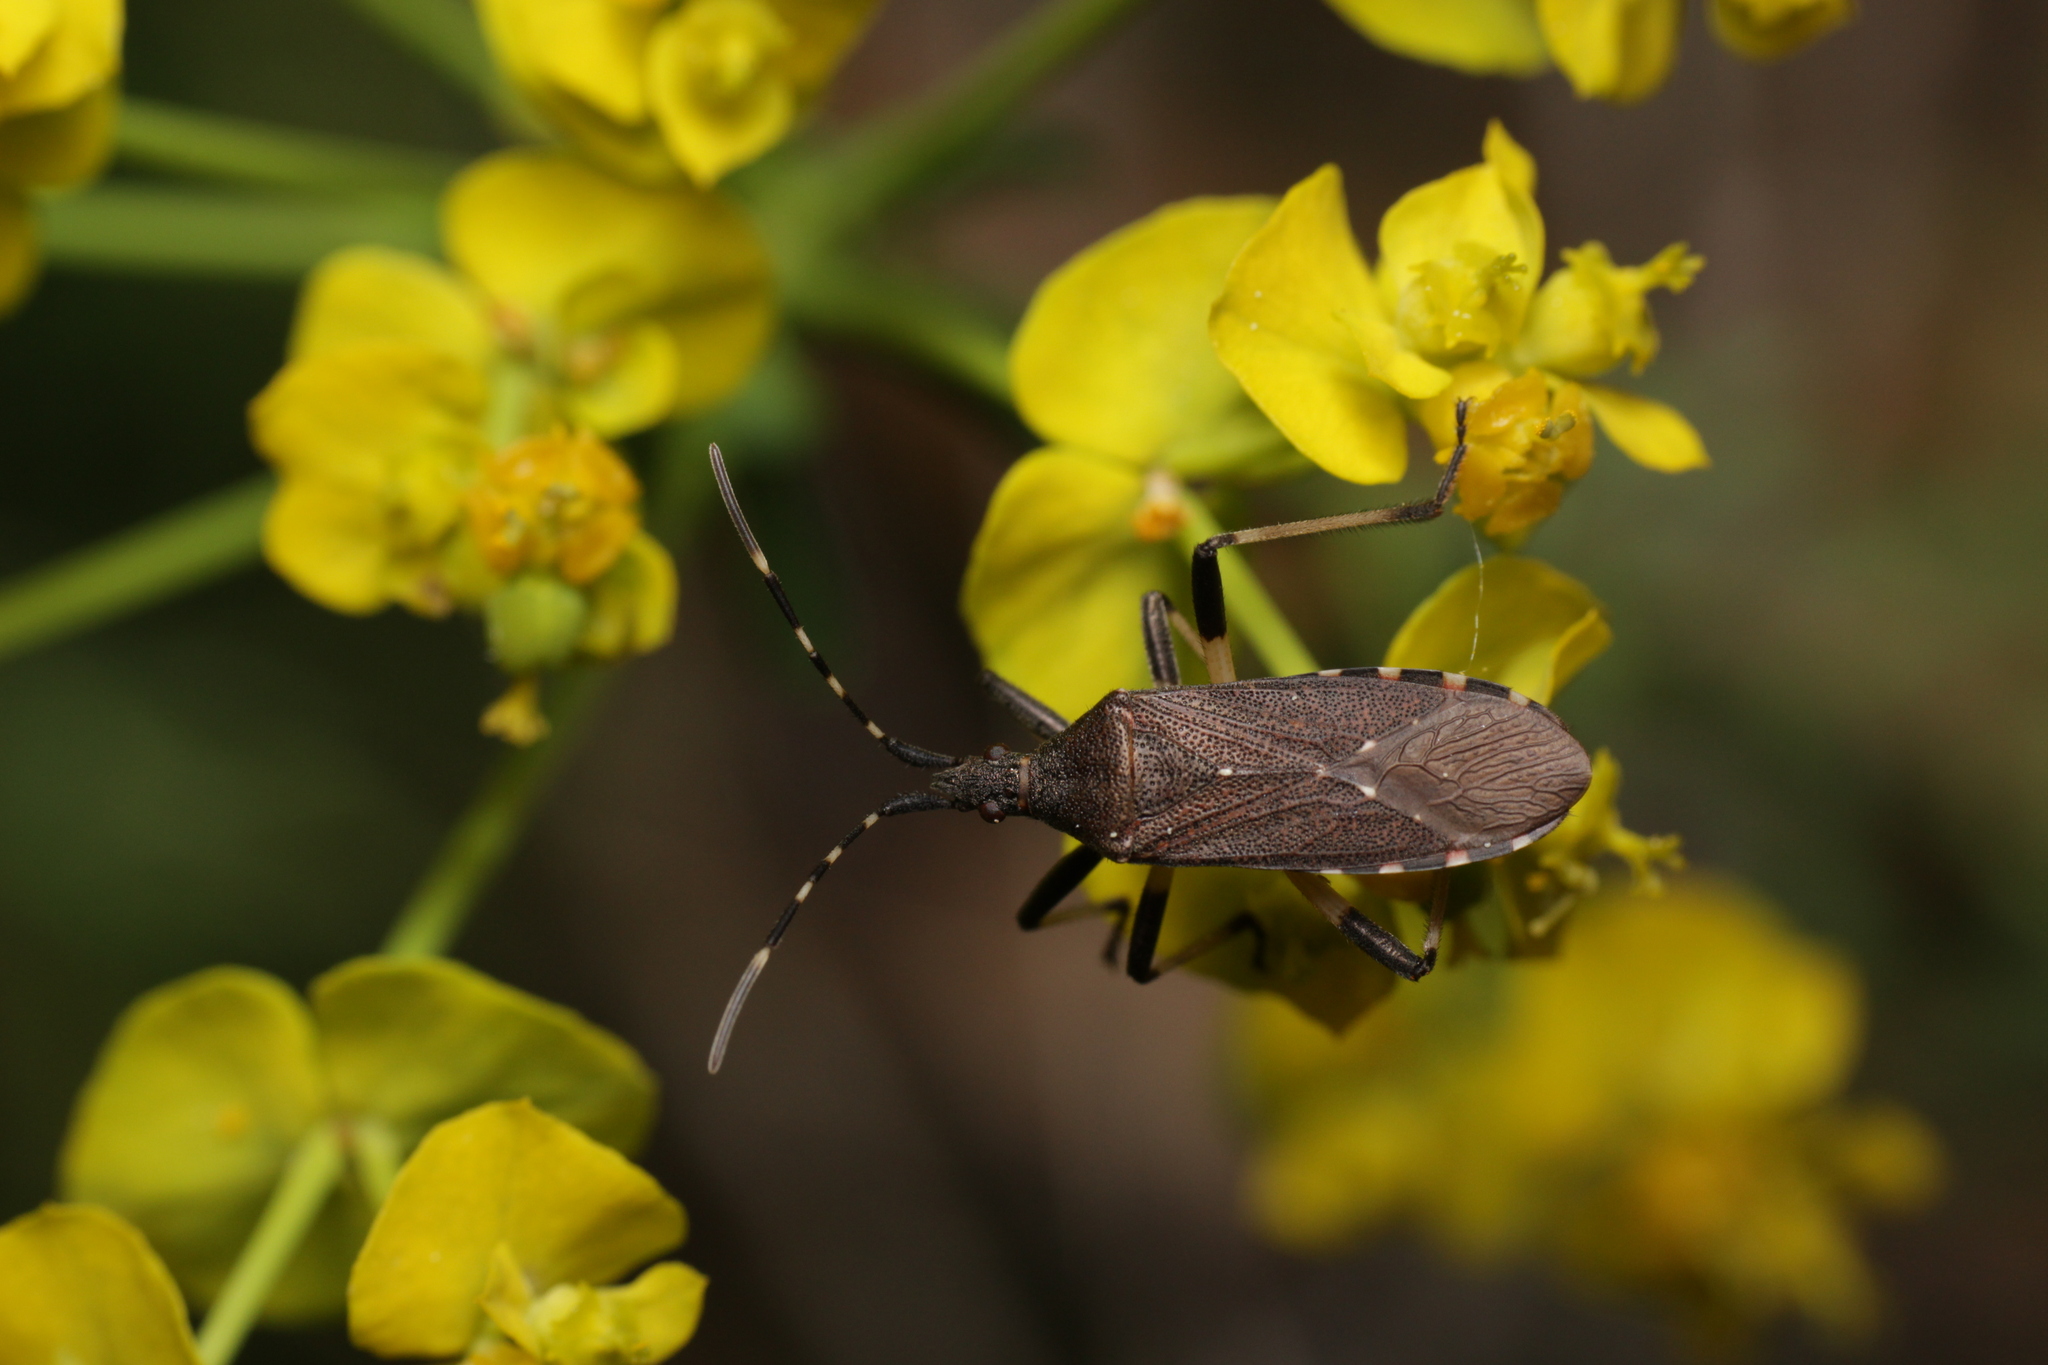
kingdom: Animalia
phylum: Arthropoda
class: Insecta
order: Hemiptera
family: Stenocephalidae
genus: Dicranocephalus
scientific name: Dicranocephalus agilis
